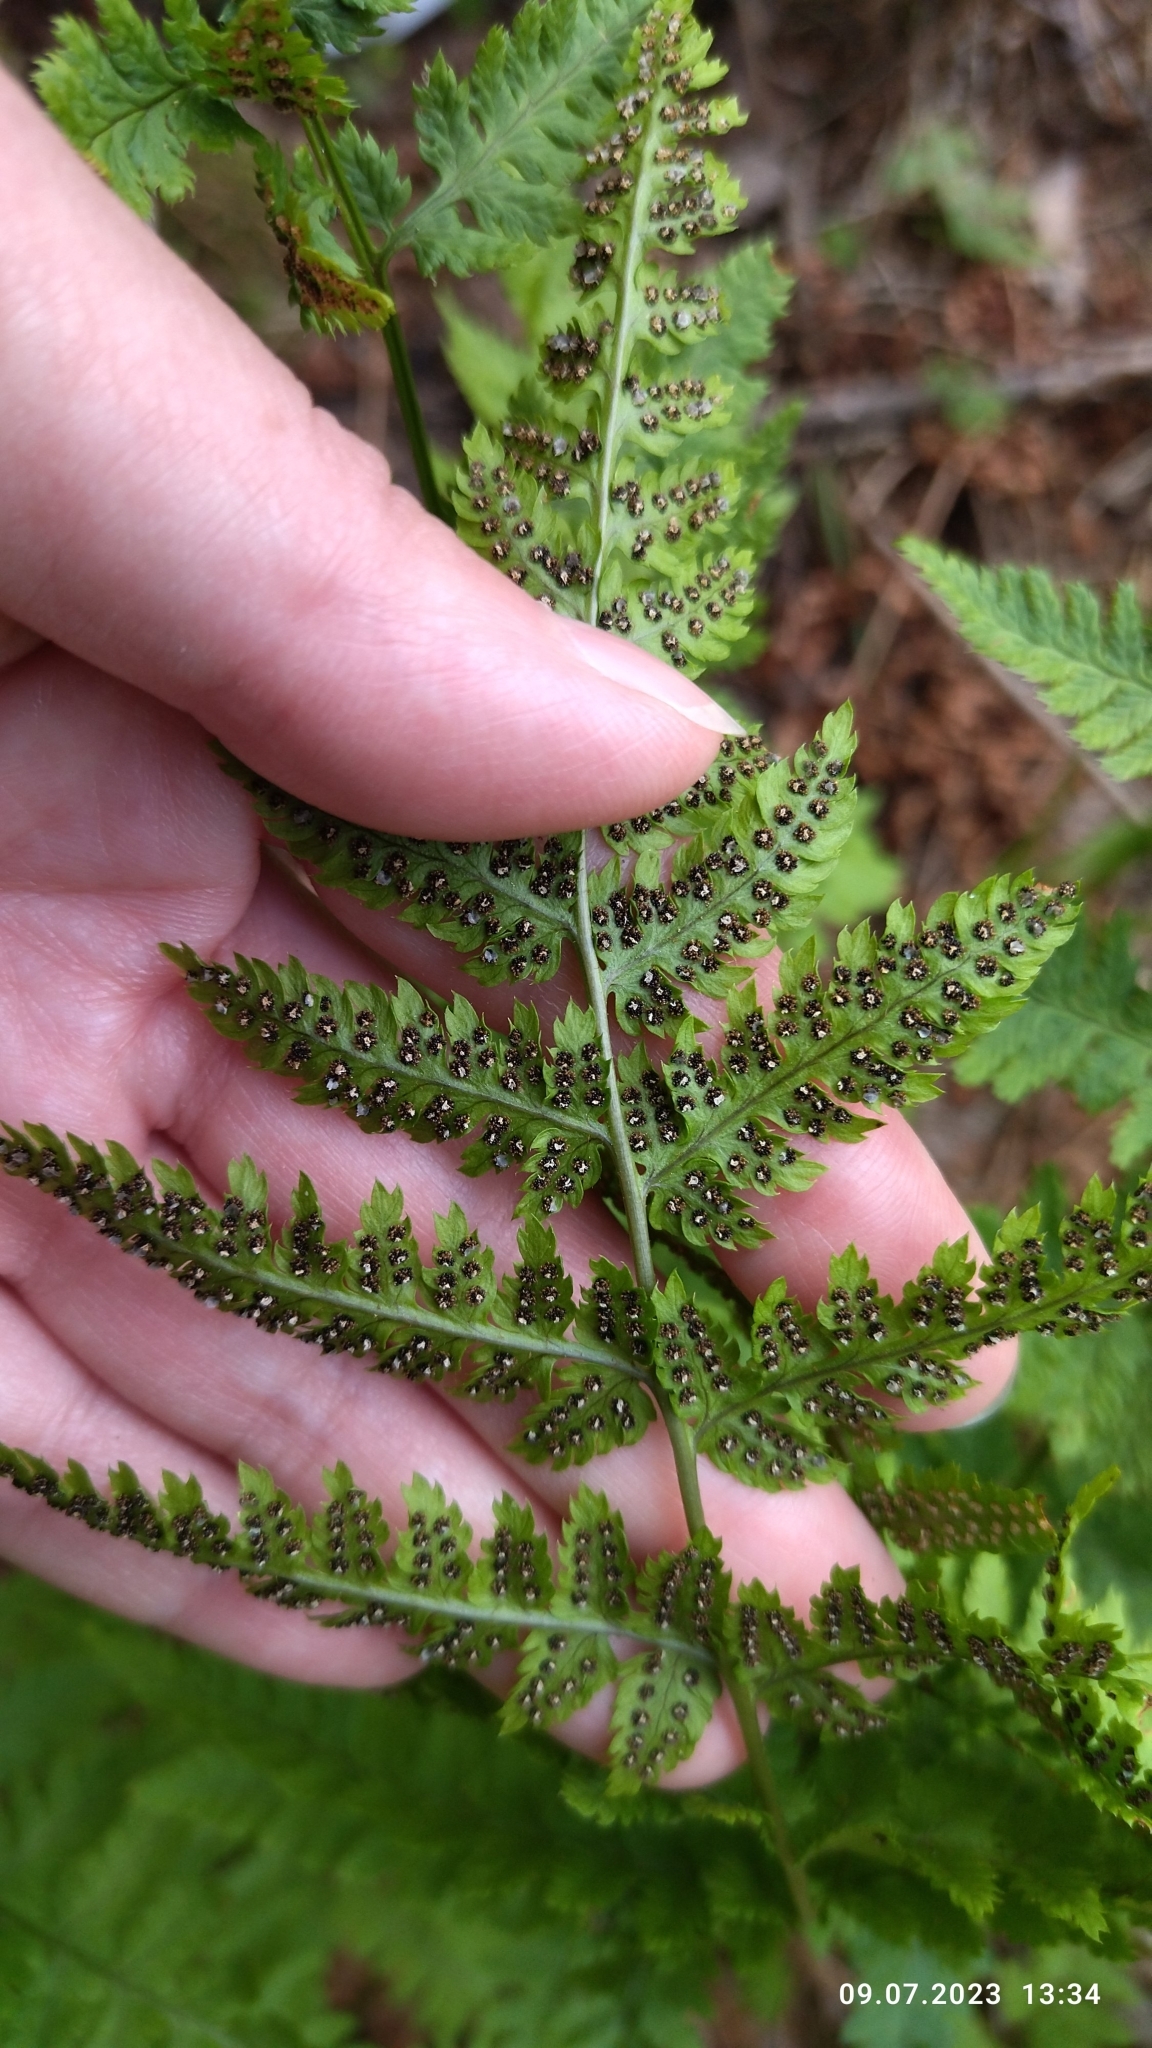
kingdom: Plantae
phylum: Tracheophyta
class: Polypodiopsida
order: Polypodiales
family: Dryopteridaceae
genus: Dryopteris
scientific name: Dryopteris carthusiana
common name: Narrow buckler-fern
